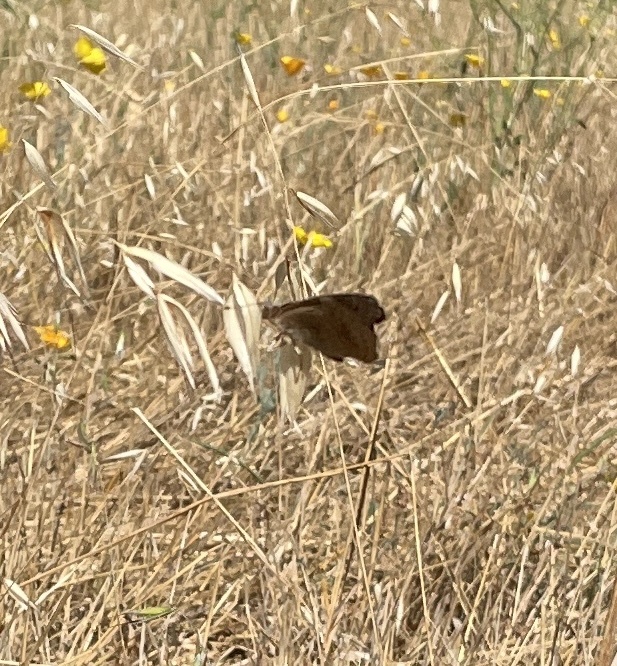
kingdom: Animalia
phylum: Arthropoda
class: Insecta
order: Lepidoptera
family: Nymphalidae
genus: Junonia
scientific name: Junonia grisea
